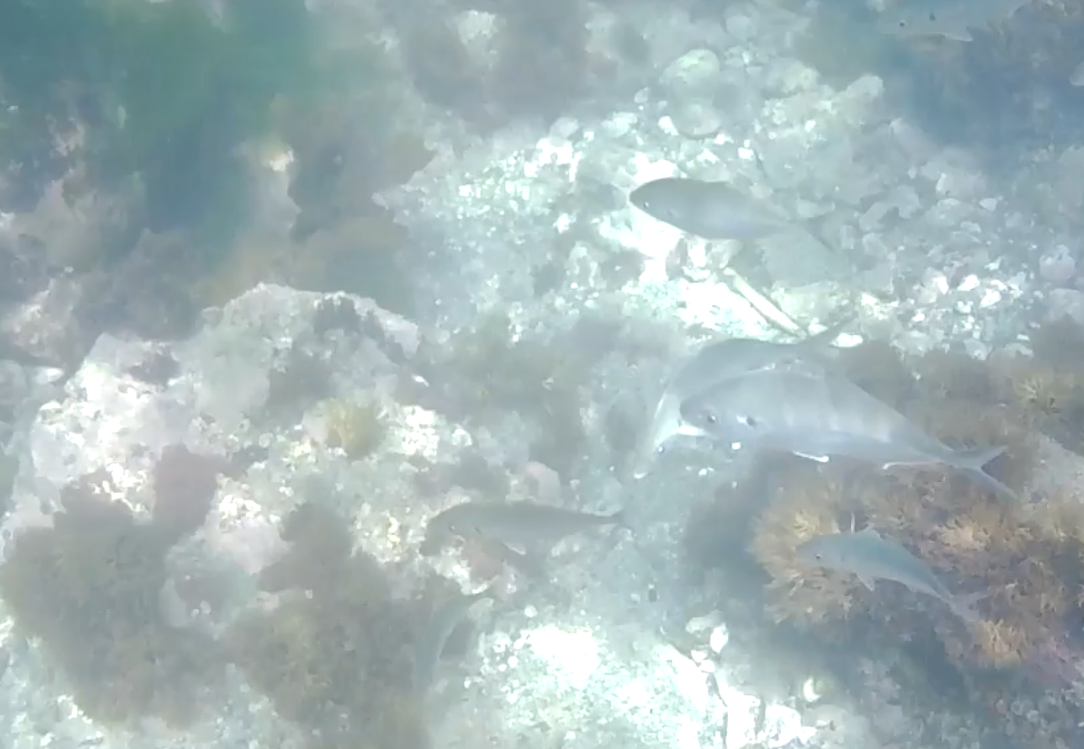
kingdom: Animalia
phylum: Chordata
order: Perciformes
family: Carangidae
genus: Pseudocaranx
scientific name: Pseudocaranx dentex
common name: White trevally
